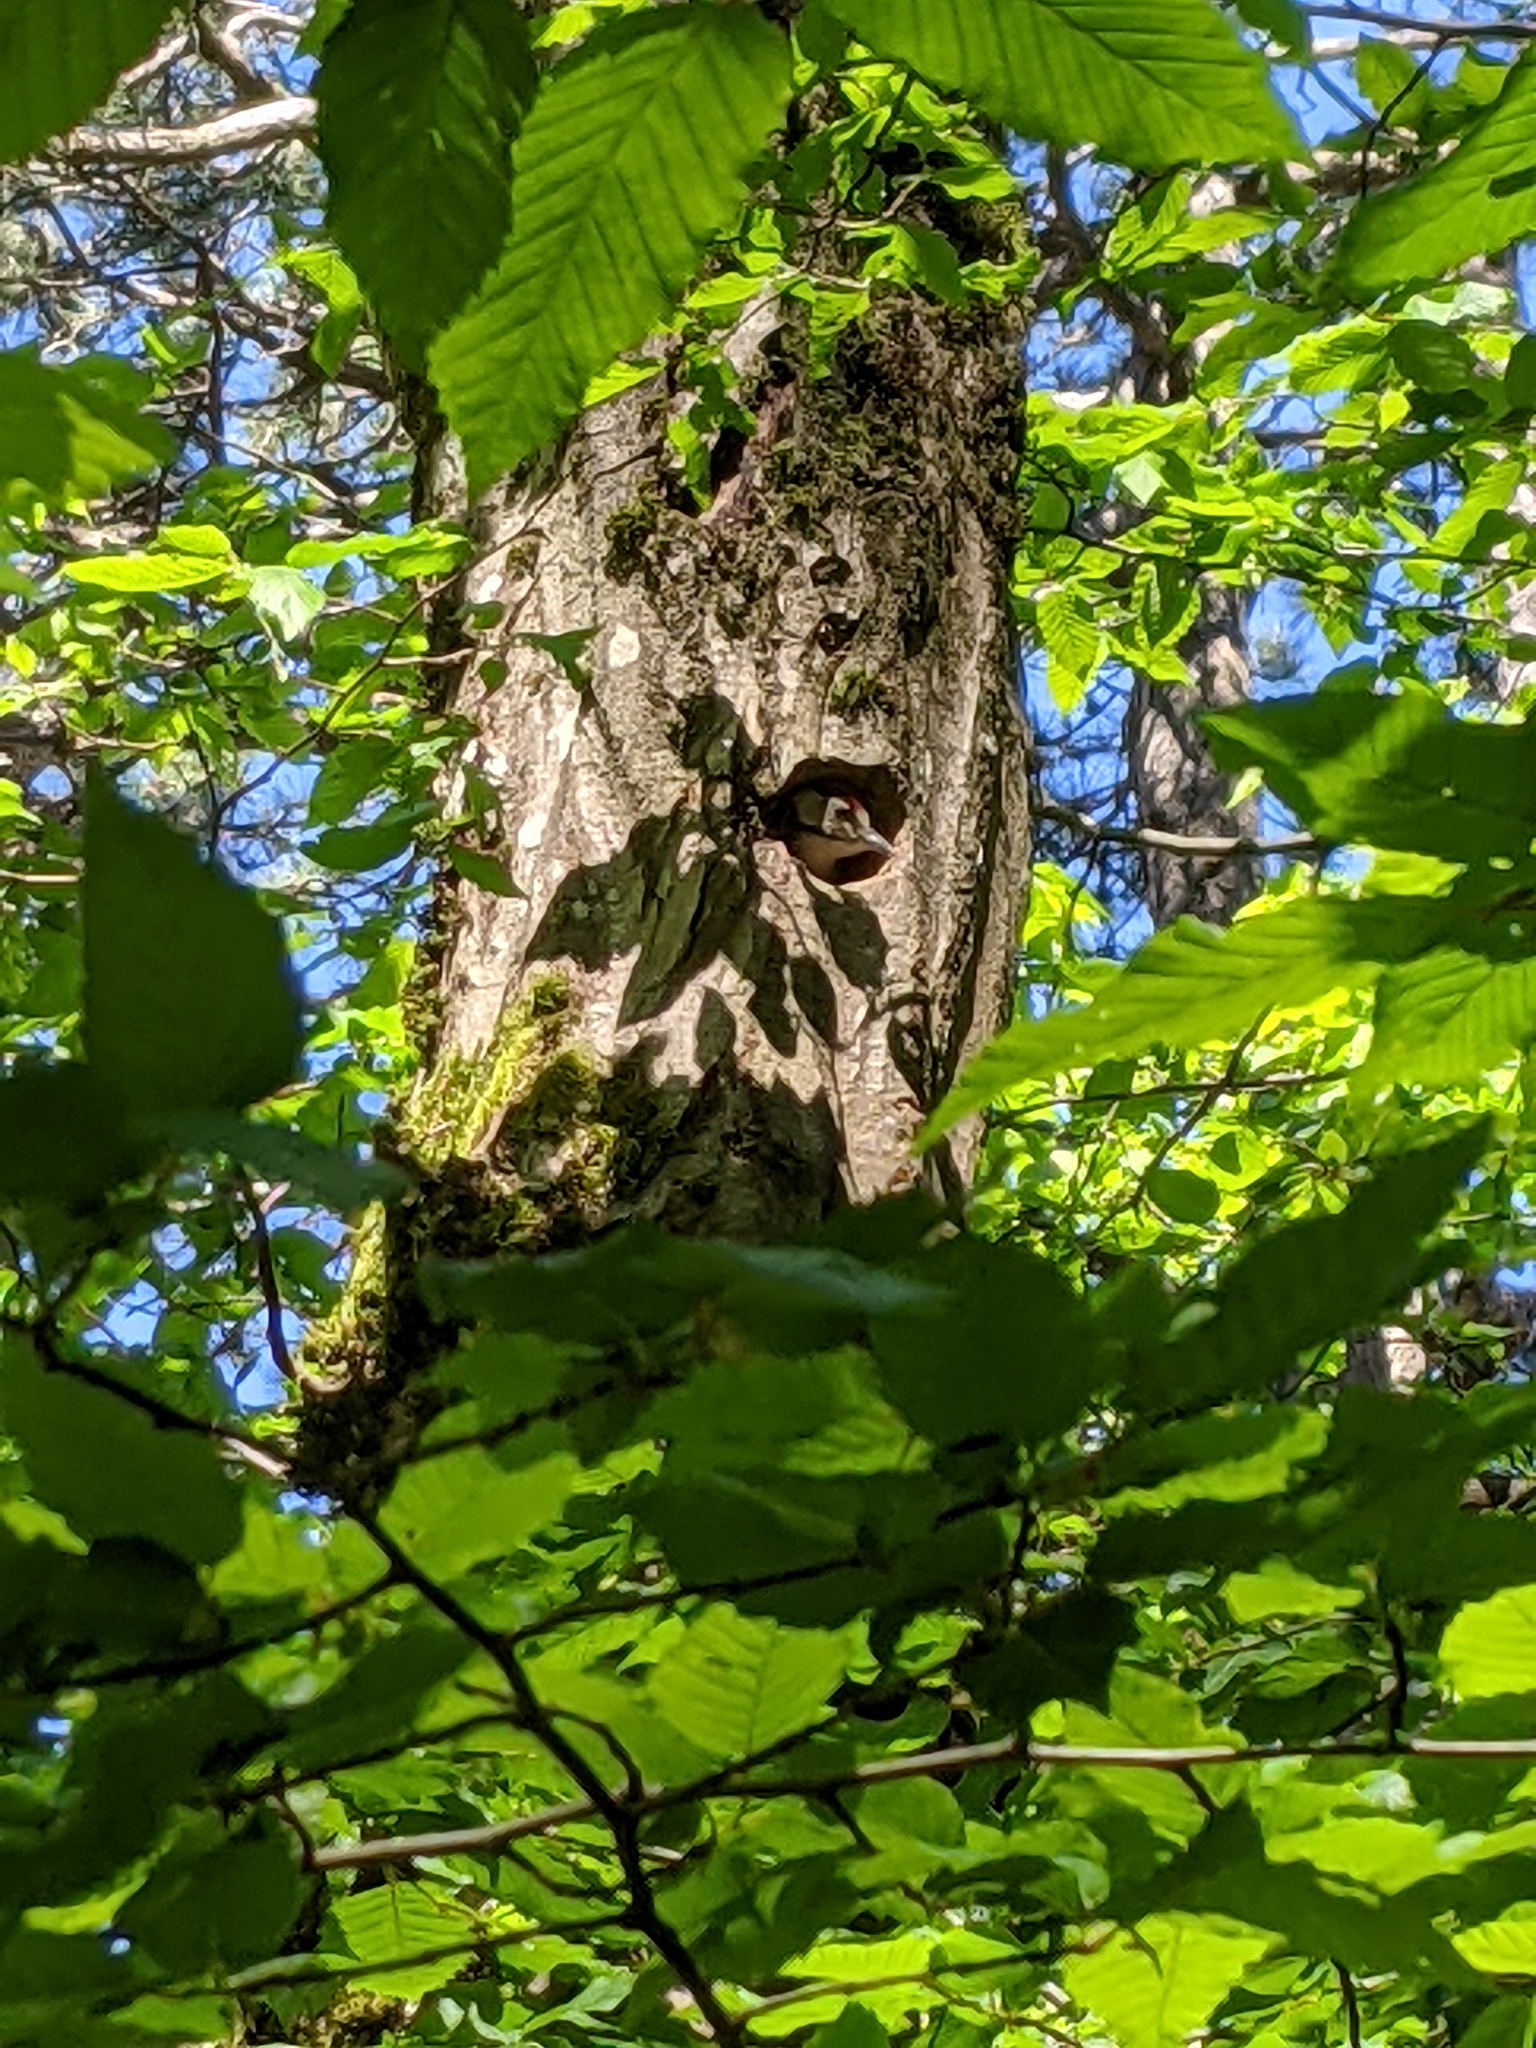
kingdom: Animalia
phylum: Chordata
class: Aves
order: Piciformes
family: Picidae
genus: Dendrocopos
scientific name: Dendrocopos major
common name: Great spotted woodpecker
